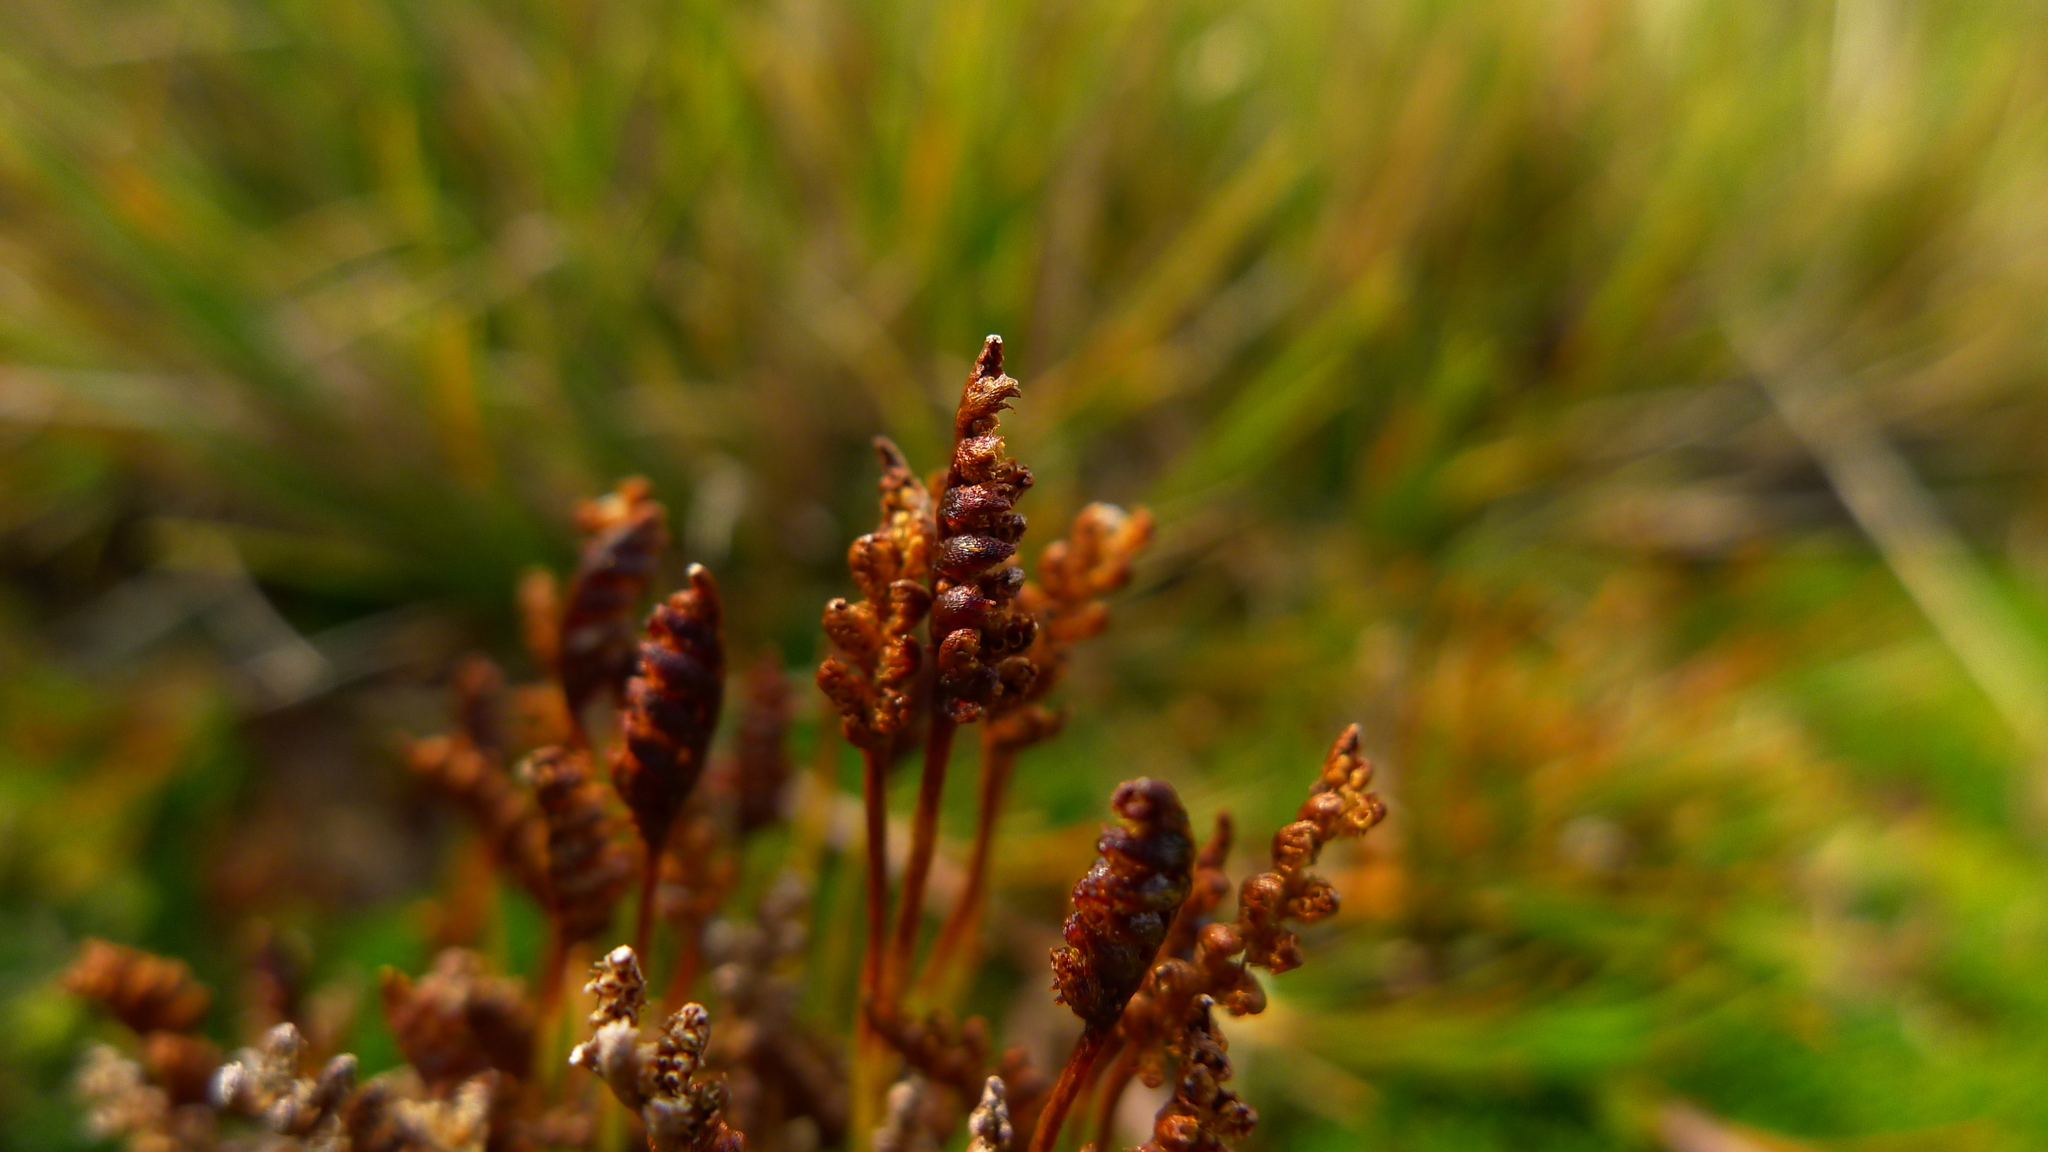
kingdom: Plantae
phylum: Tracheophyta
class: Polypodiopsida
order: Schizaeales
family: Schizaeaceae
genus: Microschizaea
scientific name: Microschizaea australis
